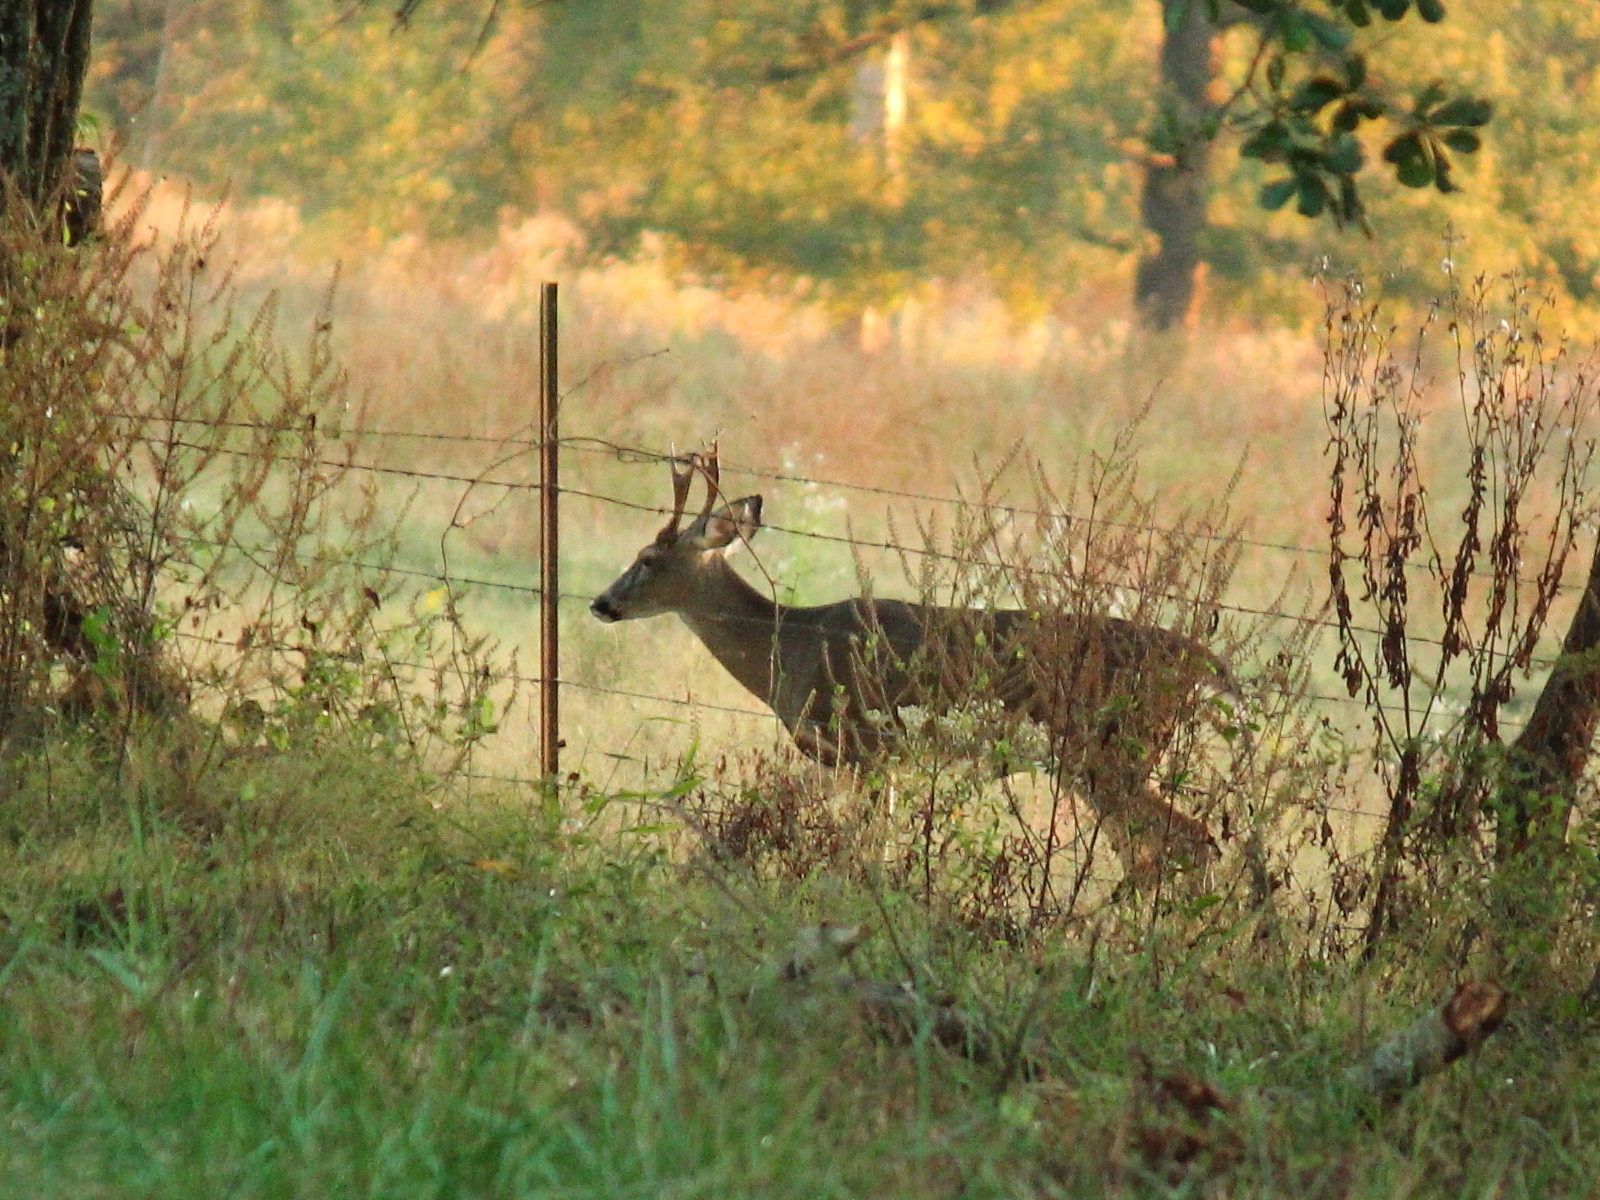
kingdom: Animalia
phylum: Chordata
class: Mammalia
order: Artiodactyla
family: Cervidae
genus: Odocoileus
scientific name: Odocoileus virginianus
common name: White-tailed deer
